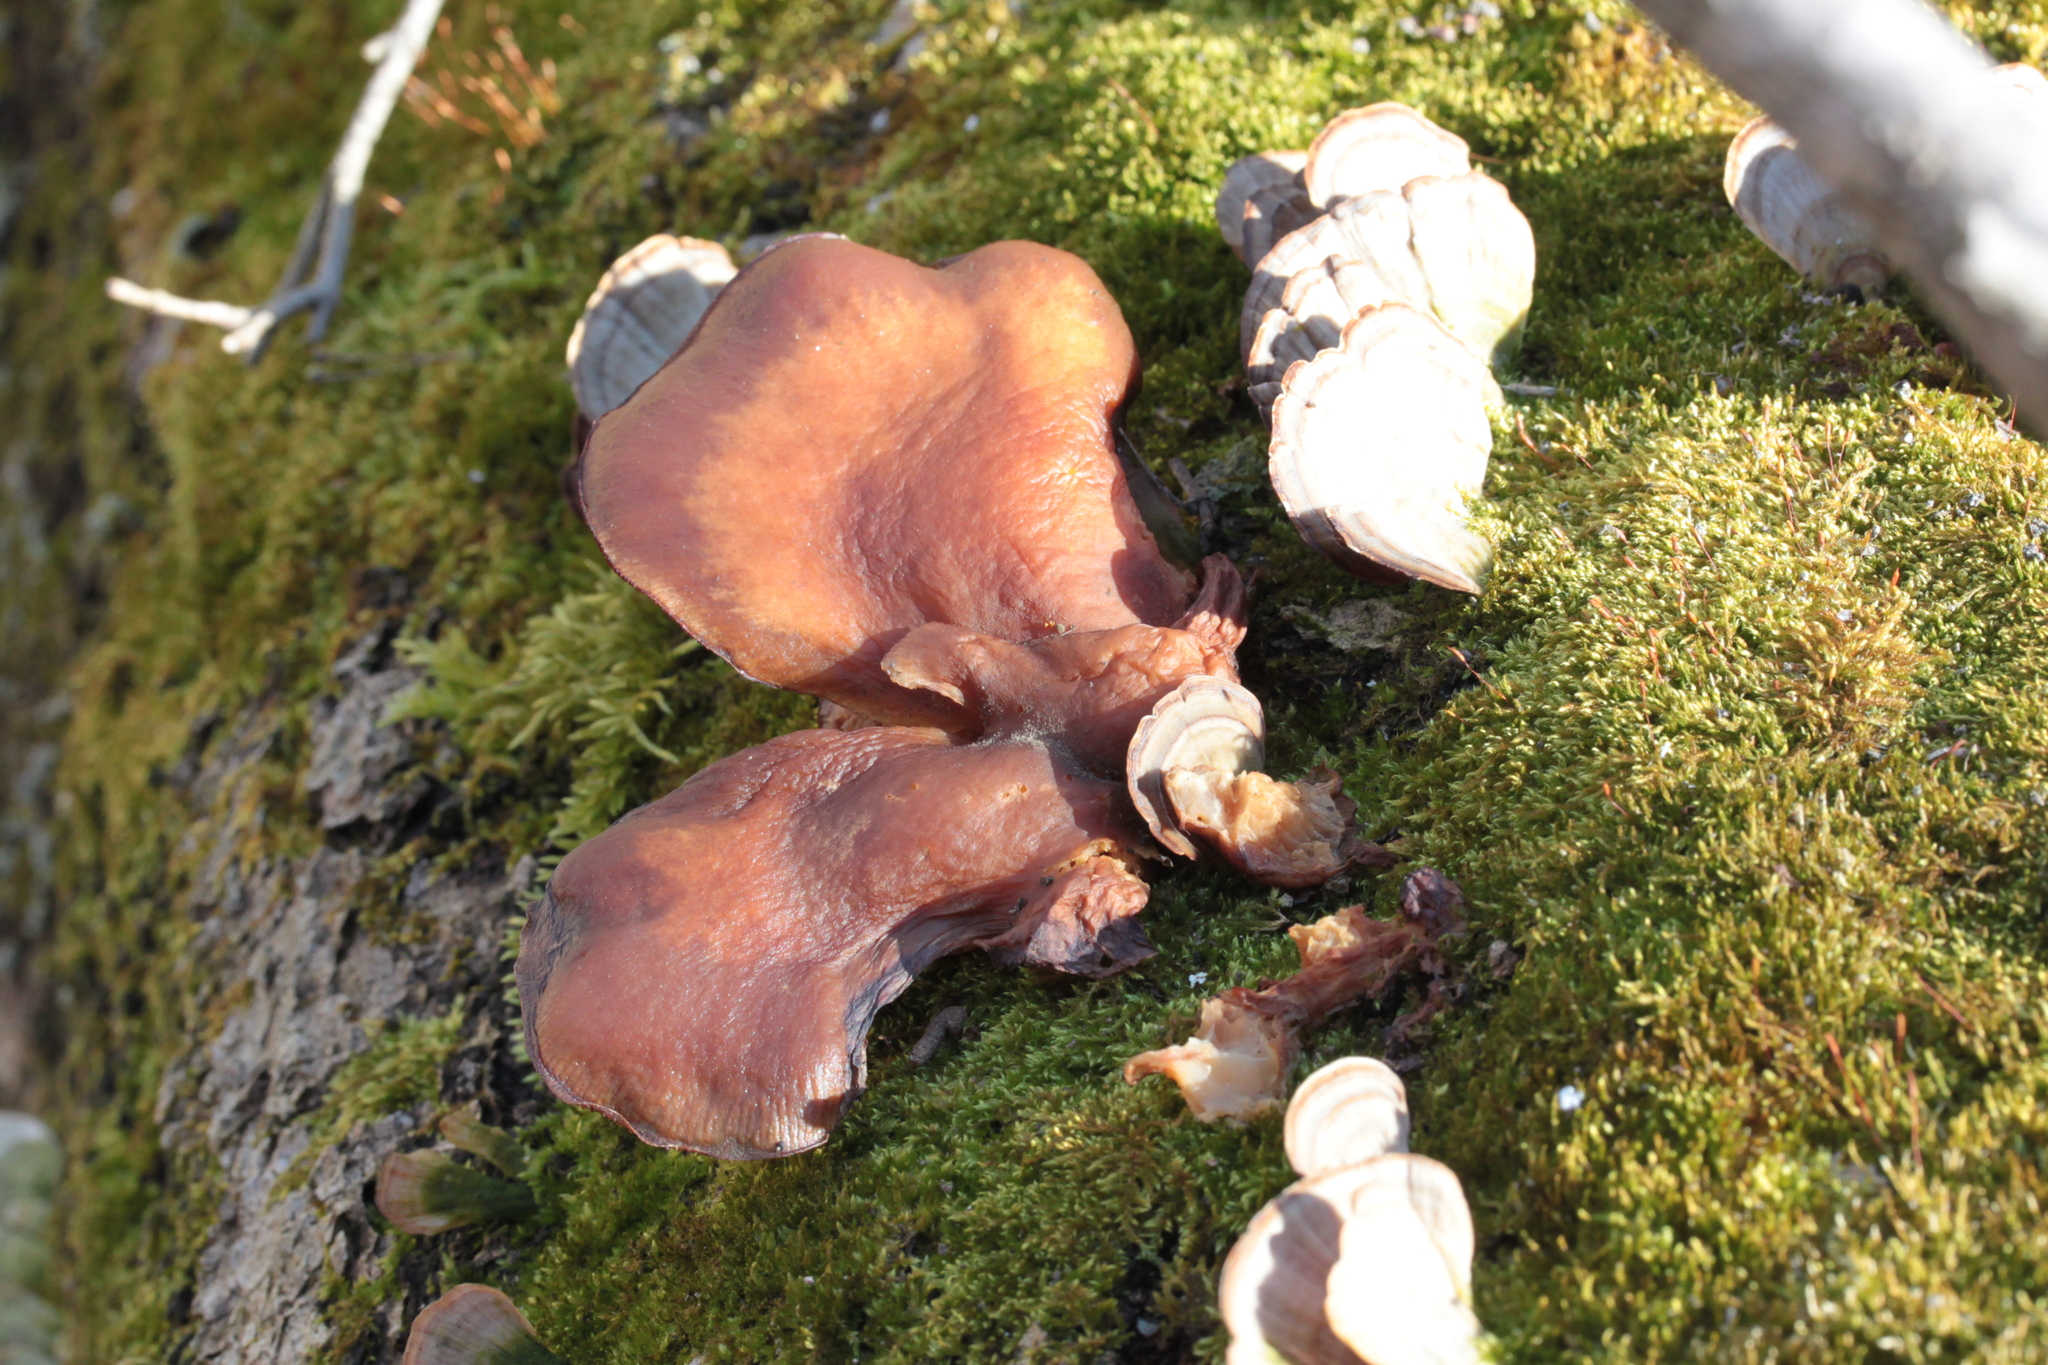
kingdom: Fungi
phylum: Basidiomycota
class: Agaricomycetes
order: Agaricales
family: Sarcomyxaceae
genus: Sarcomyxa
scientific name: Sarcomyxa serotina
